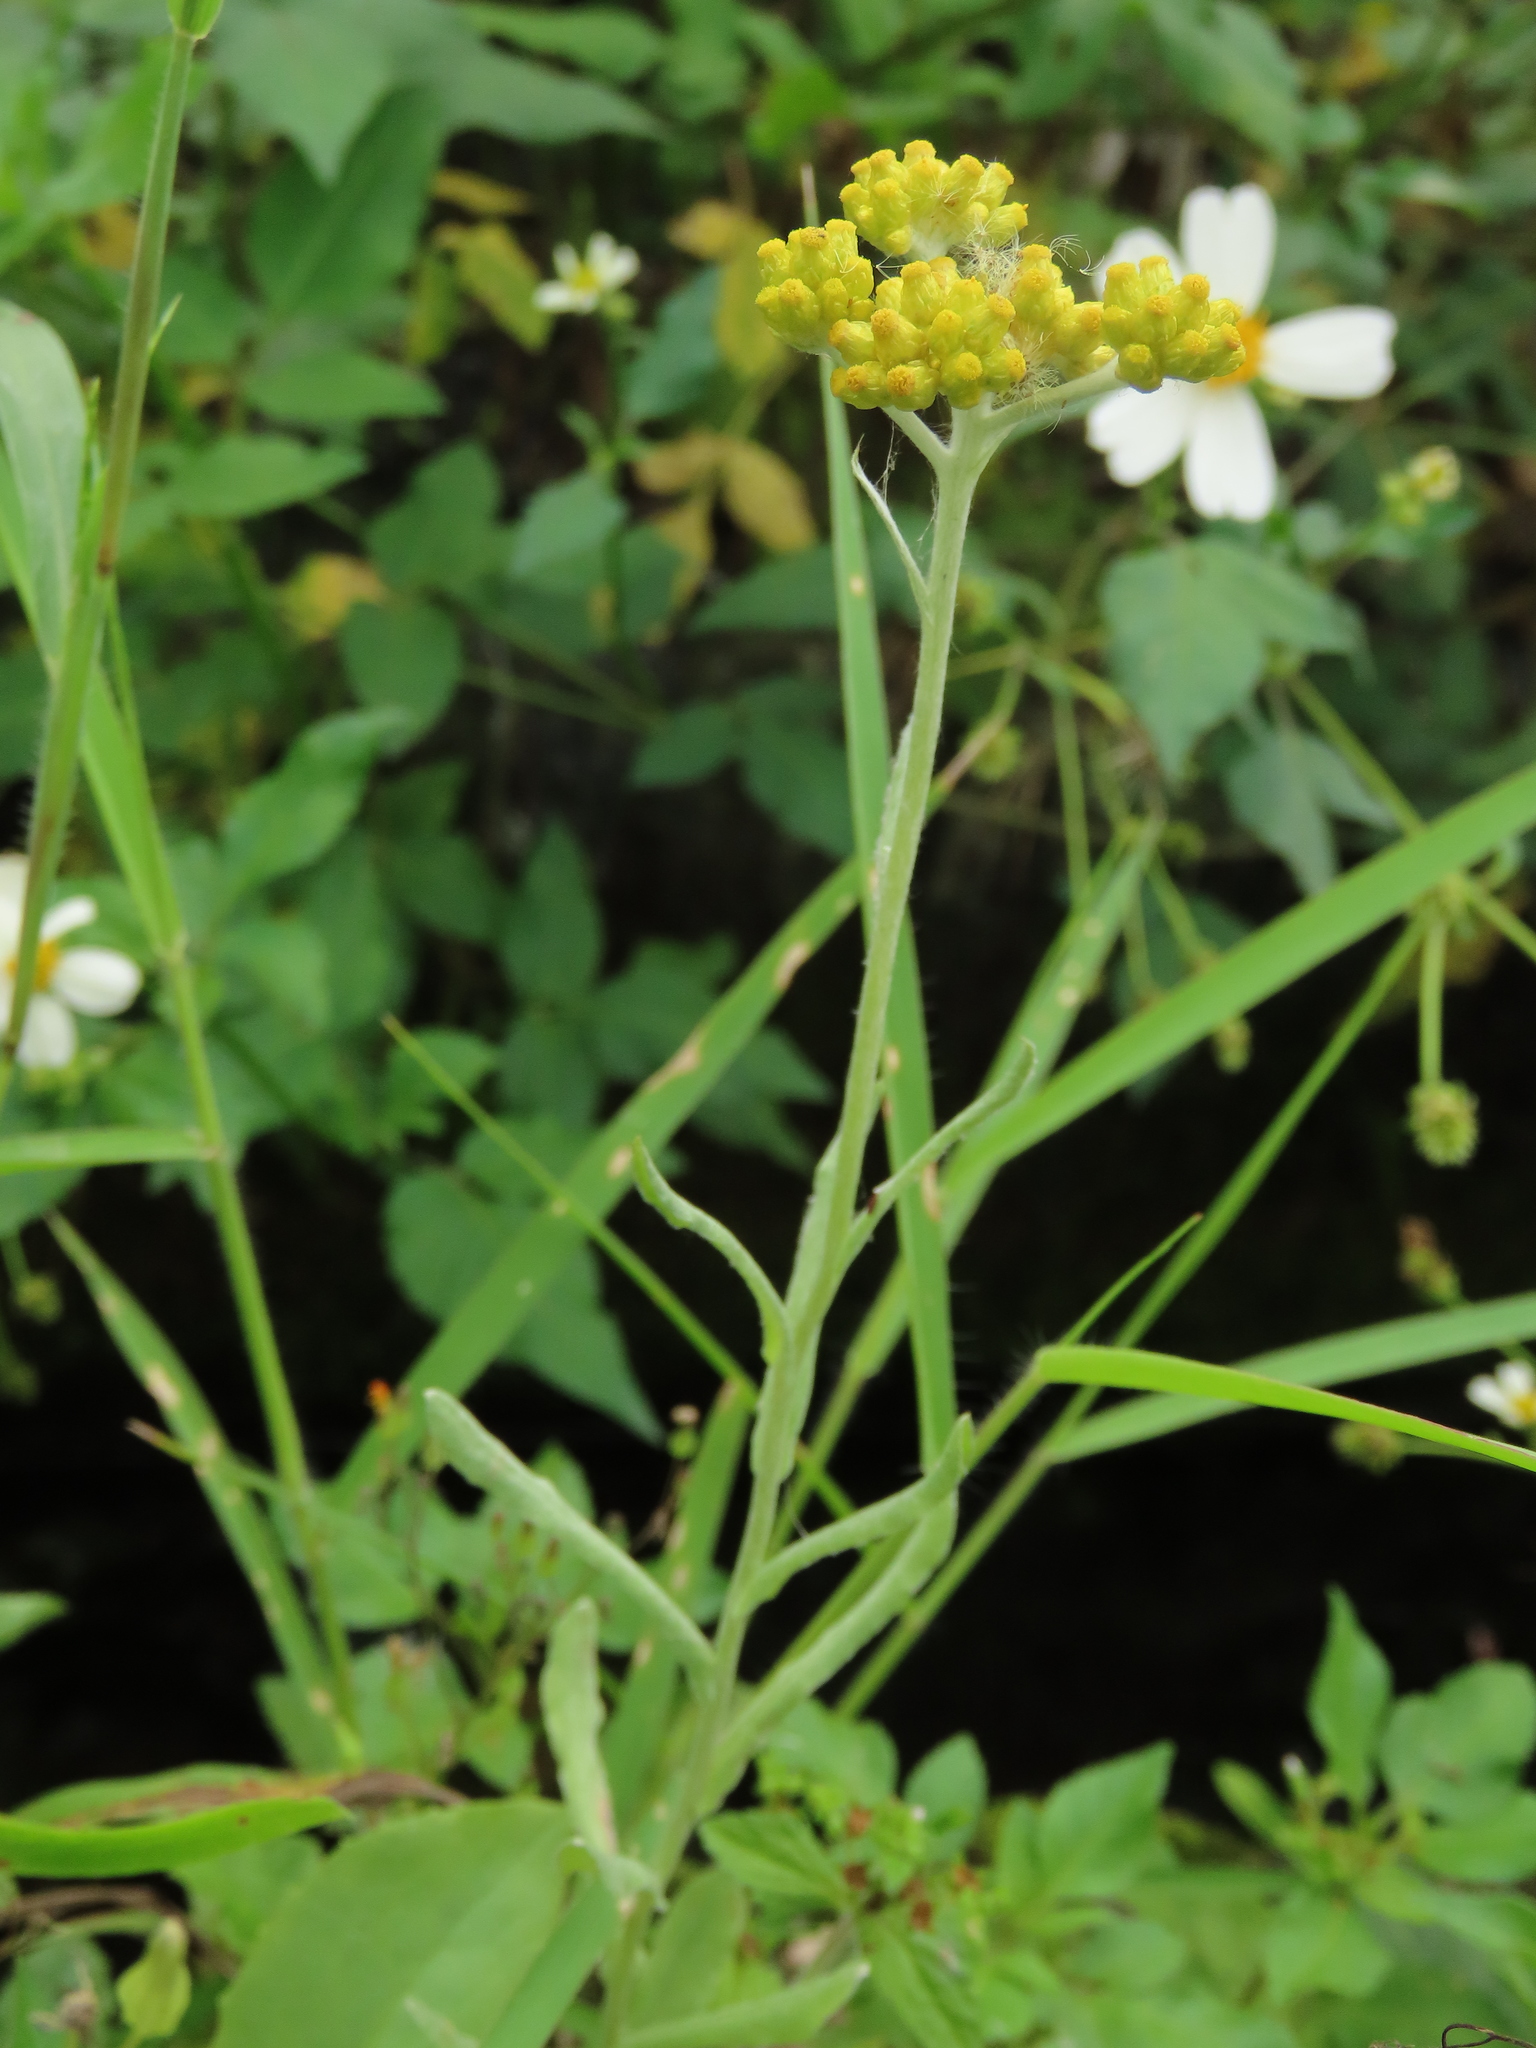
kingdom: Plantae
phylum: Tracheophyta
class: Magnoliopsida
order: Asterales
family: Asteraceae
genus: Pseudognaphalium
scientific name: Pseudognaphalium affine
